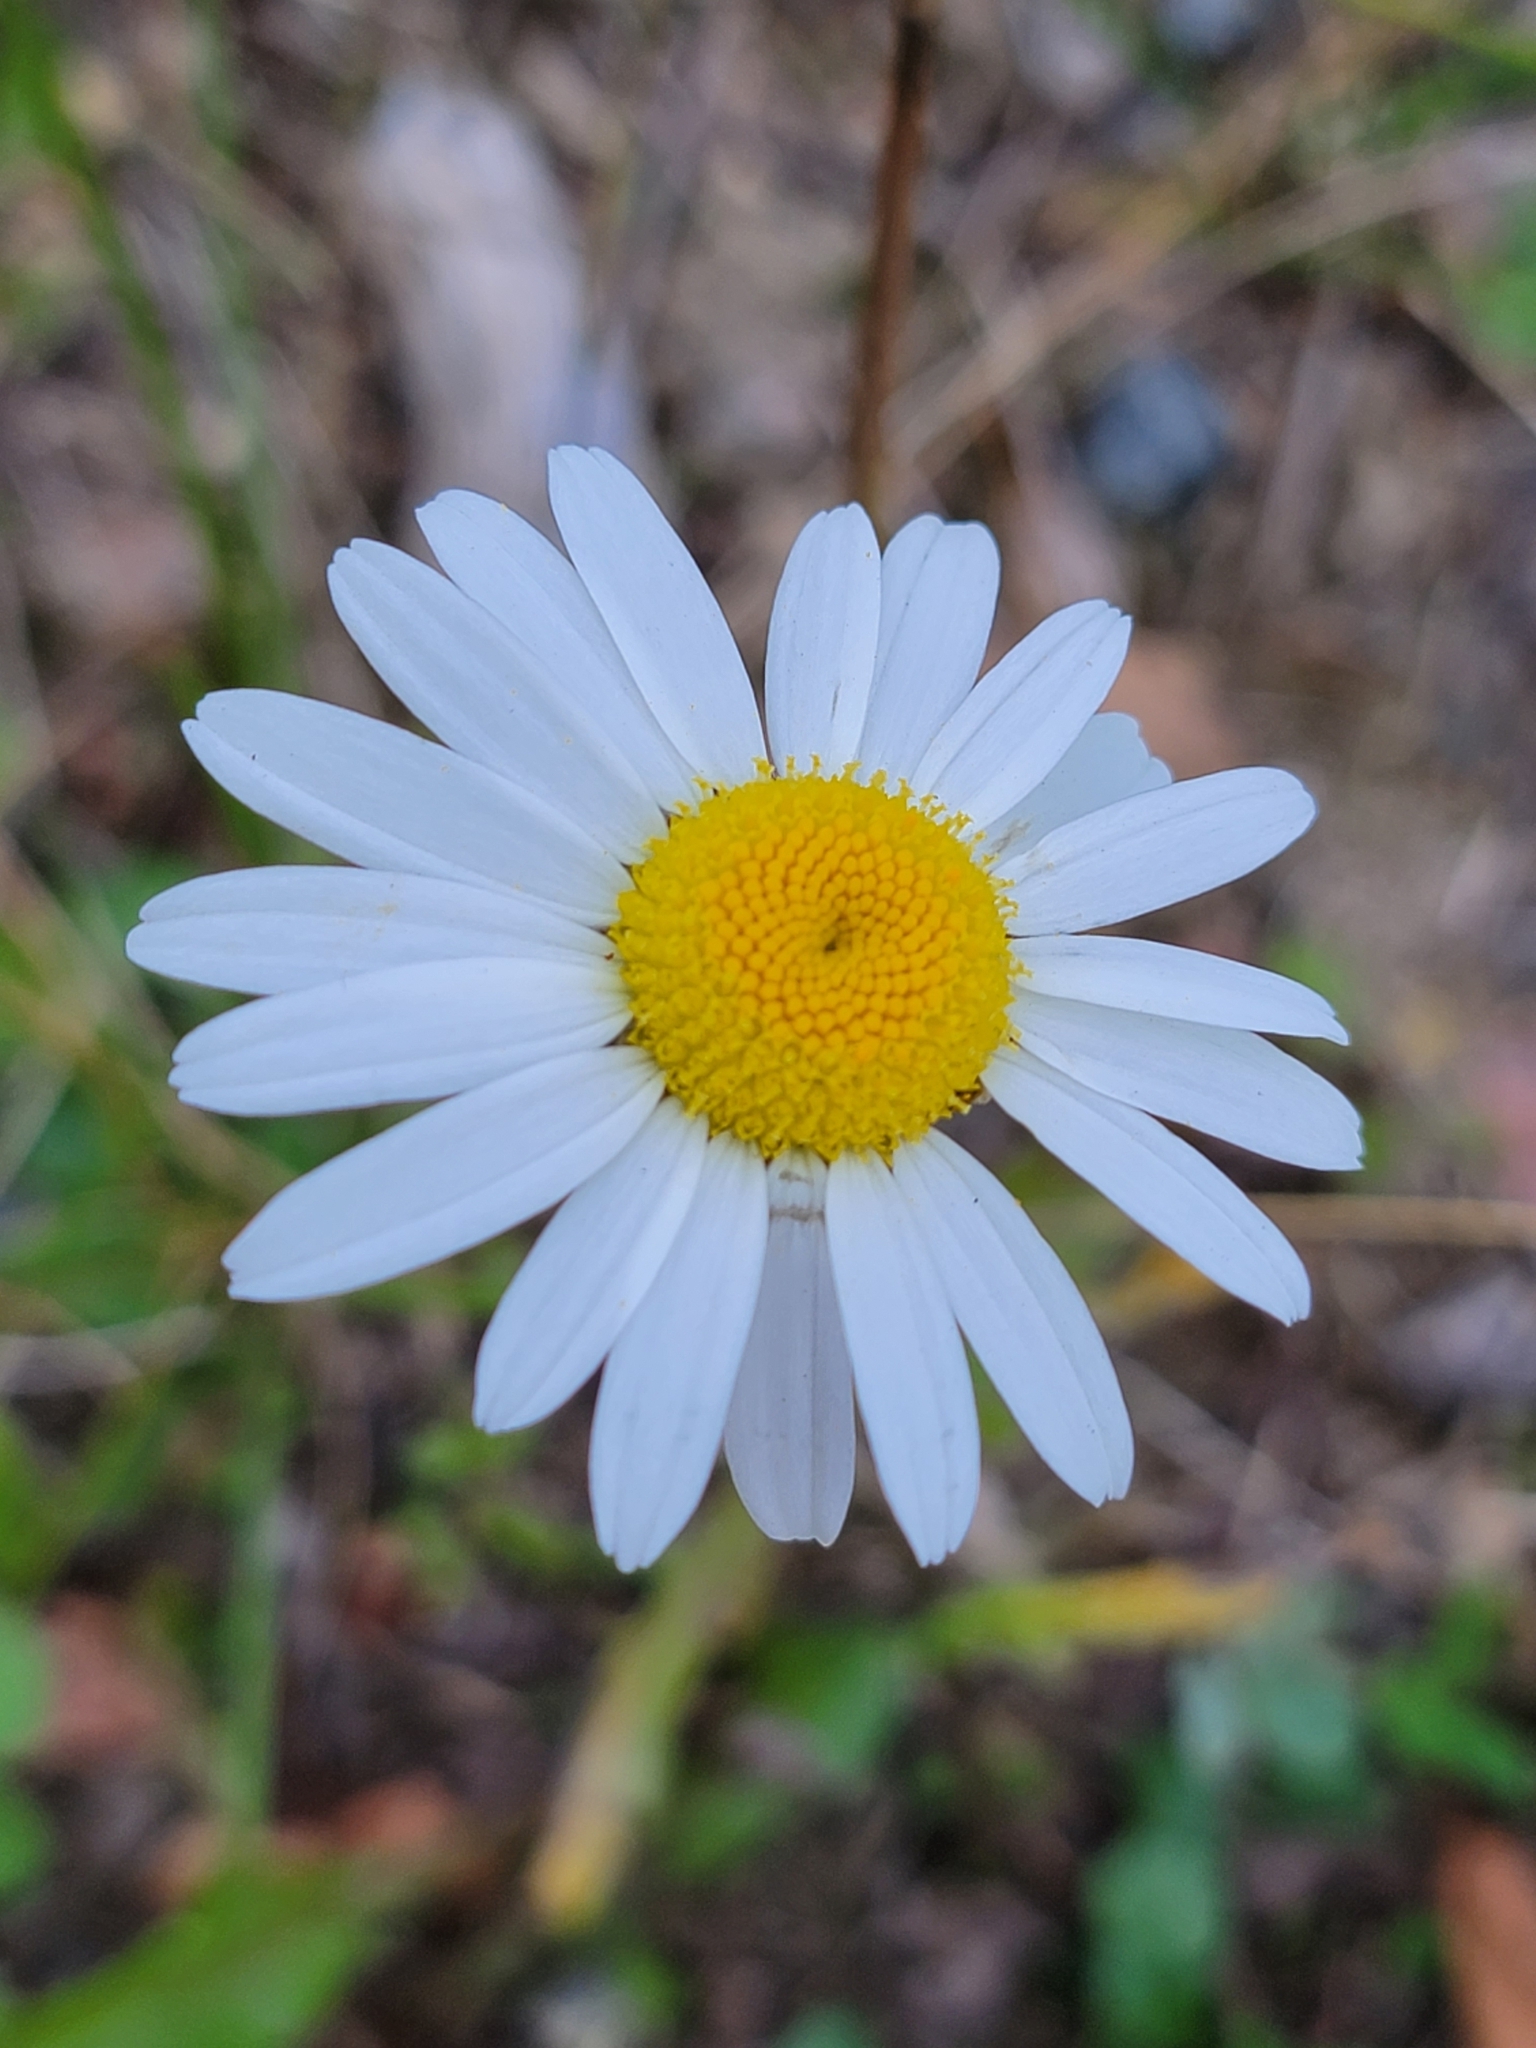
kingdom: Plantae
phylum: Tracheophyta
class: Magnoliopsida
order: Asterales
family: Asteraceae
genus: Leucanthemum
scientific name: Leucanthemum vulgare
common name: Oxeye daisy
